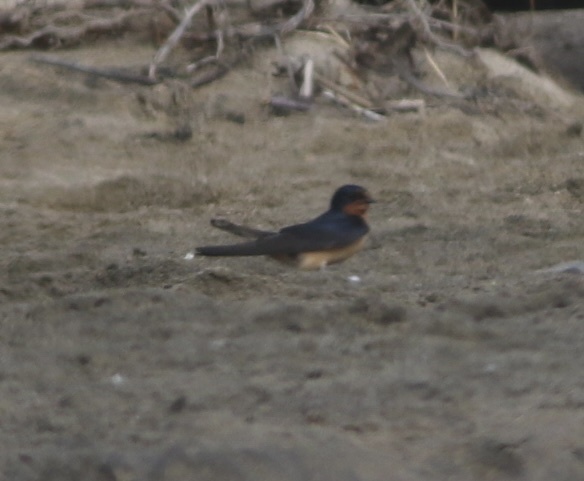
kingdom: Animalia
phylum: Chordata
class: Aves
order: Passeriformes
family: Hirundinidae
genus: Hirundo
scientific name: Hirundo rustica
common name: Barn swallow
